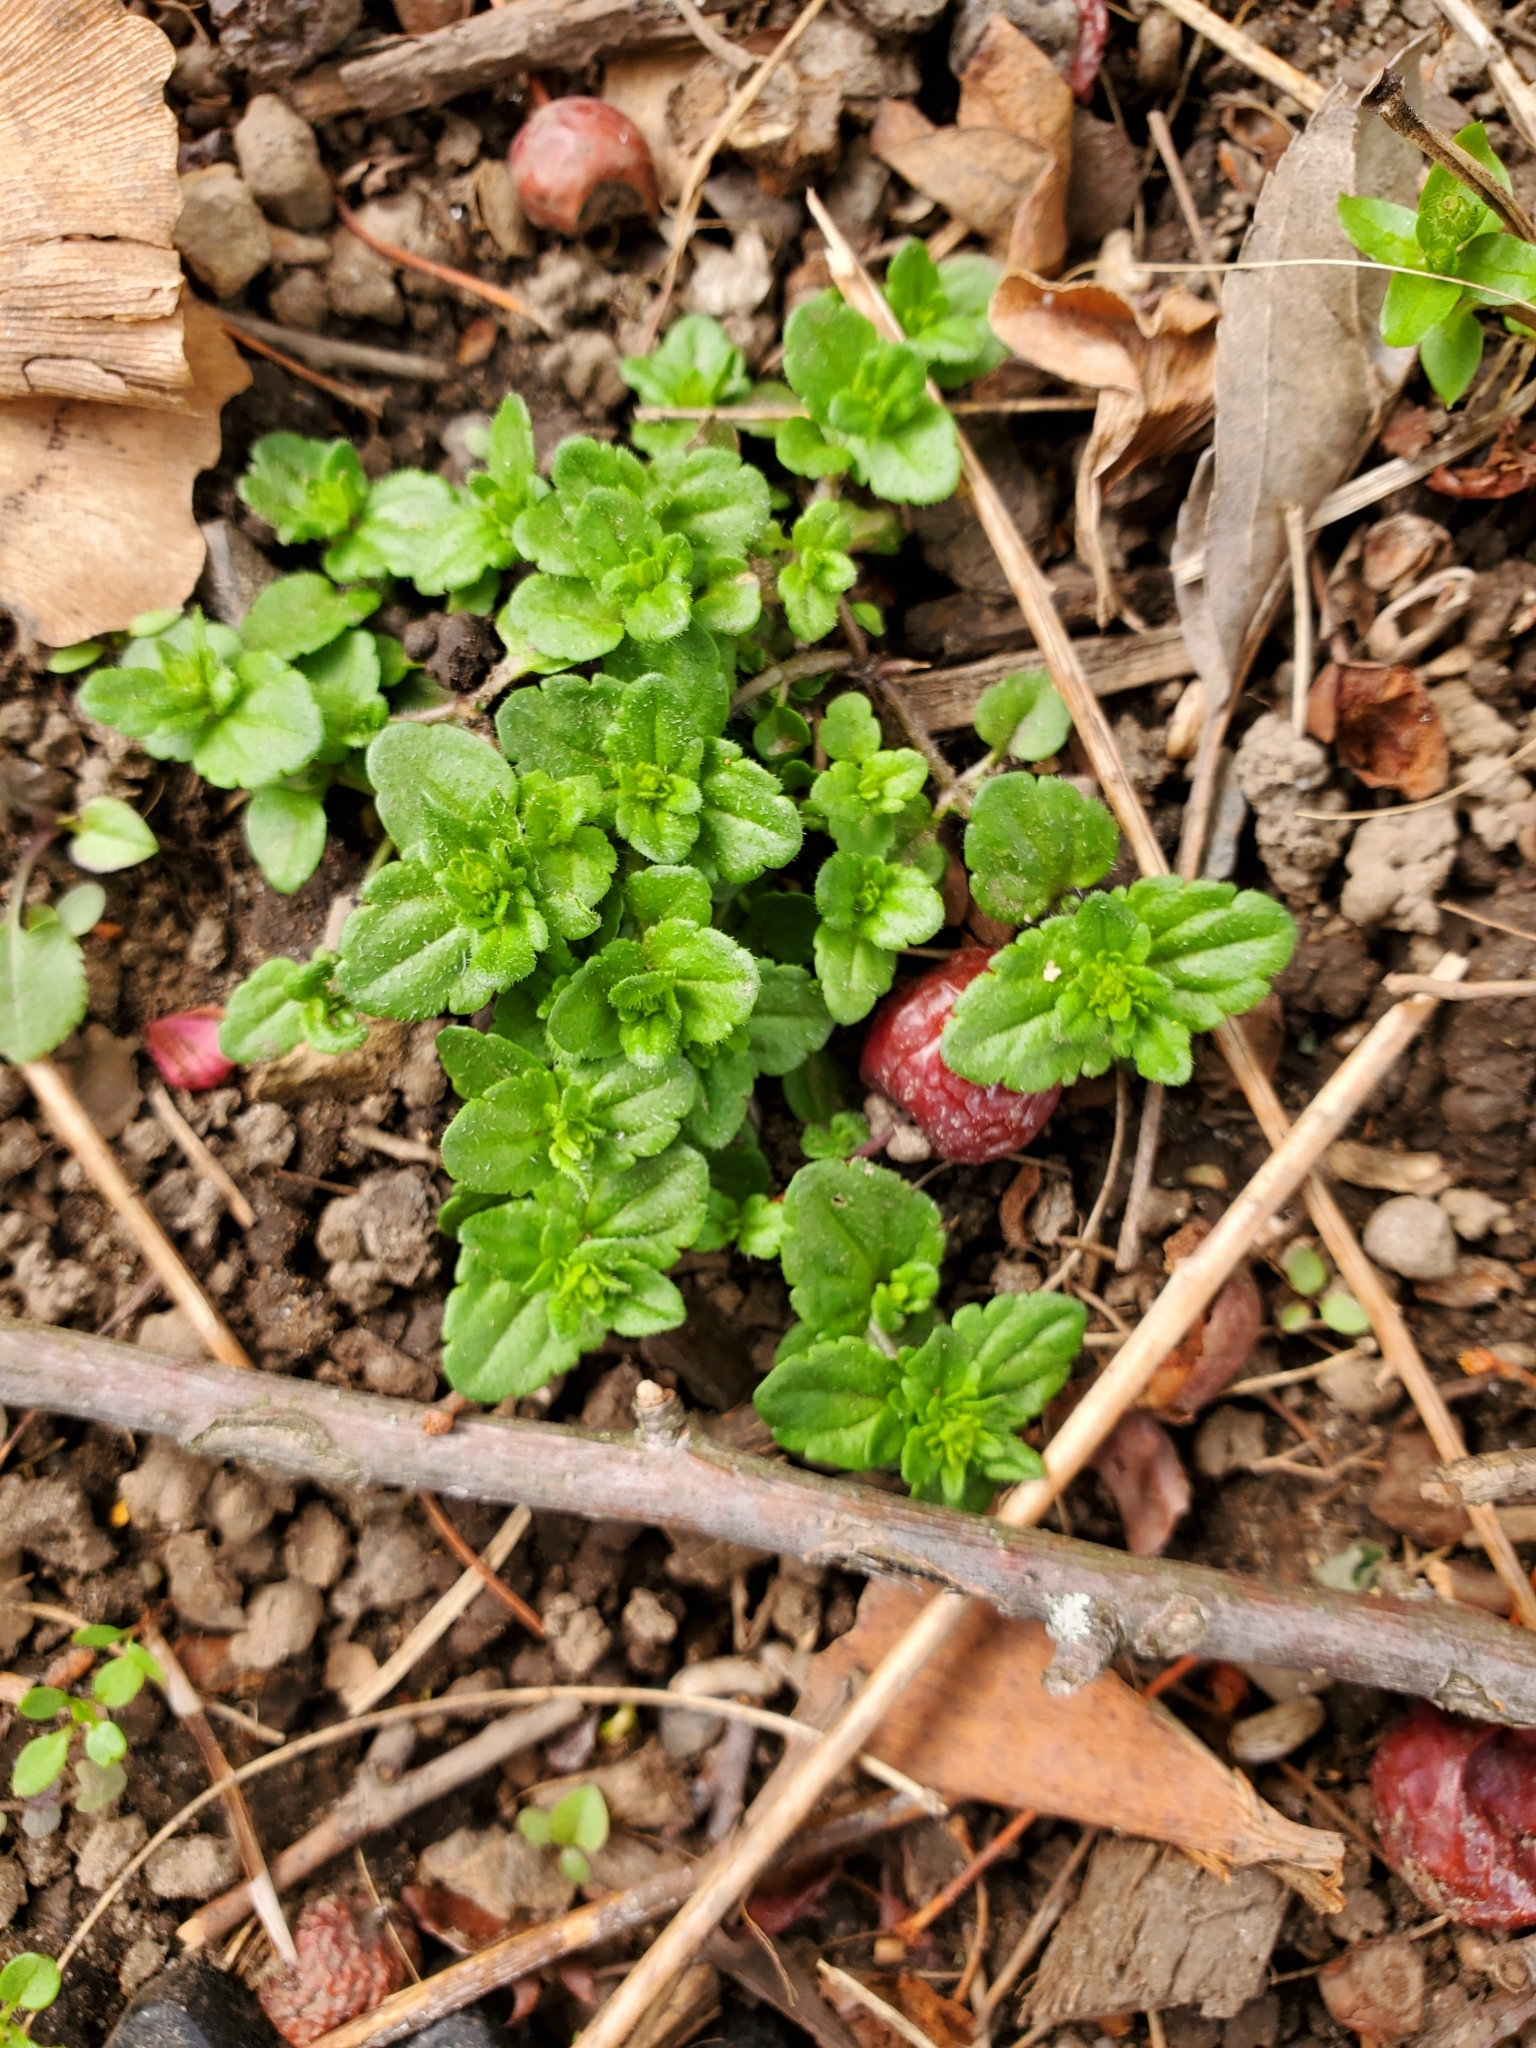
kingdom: Plantae
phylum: Tracheophyta
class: Magnoliopsida
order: Lamiales
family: Plantaginaceae
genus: Veronica
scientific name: Veronica arvensis
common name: Corn speedwell
